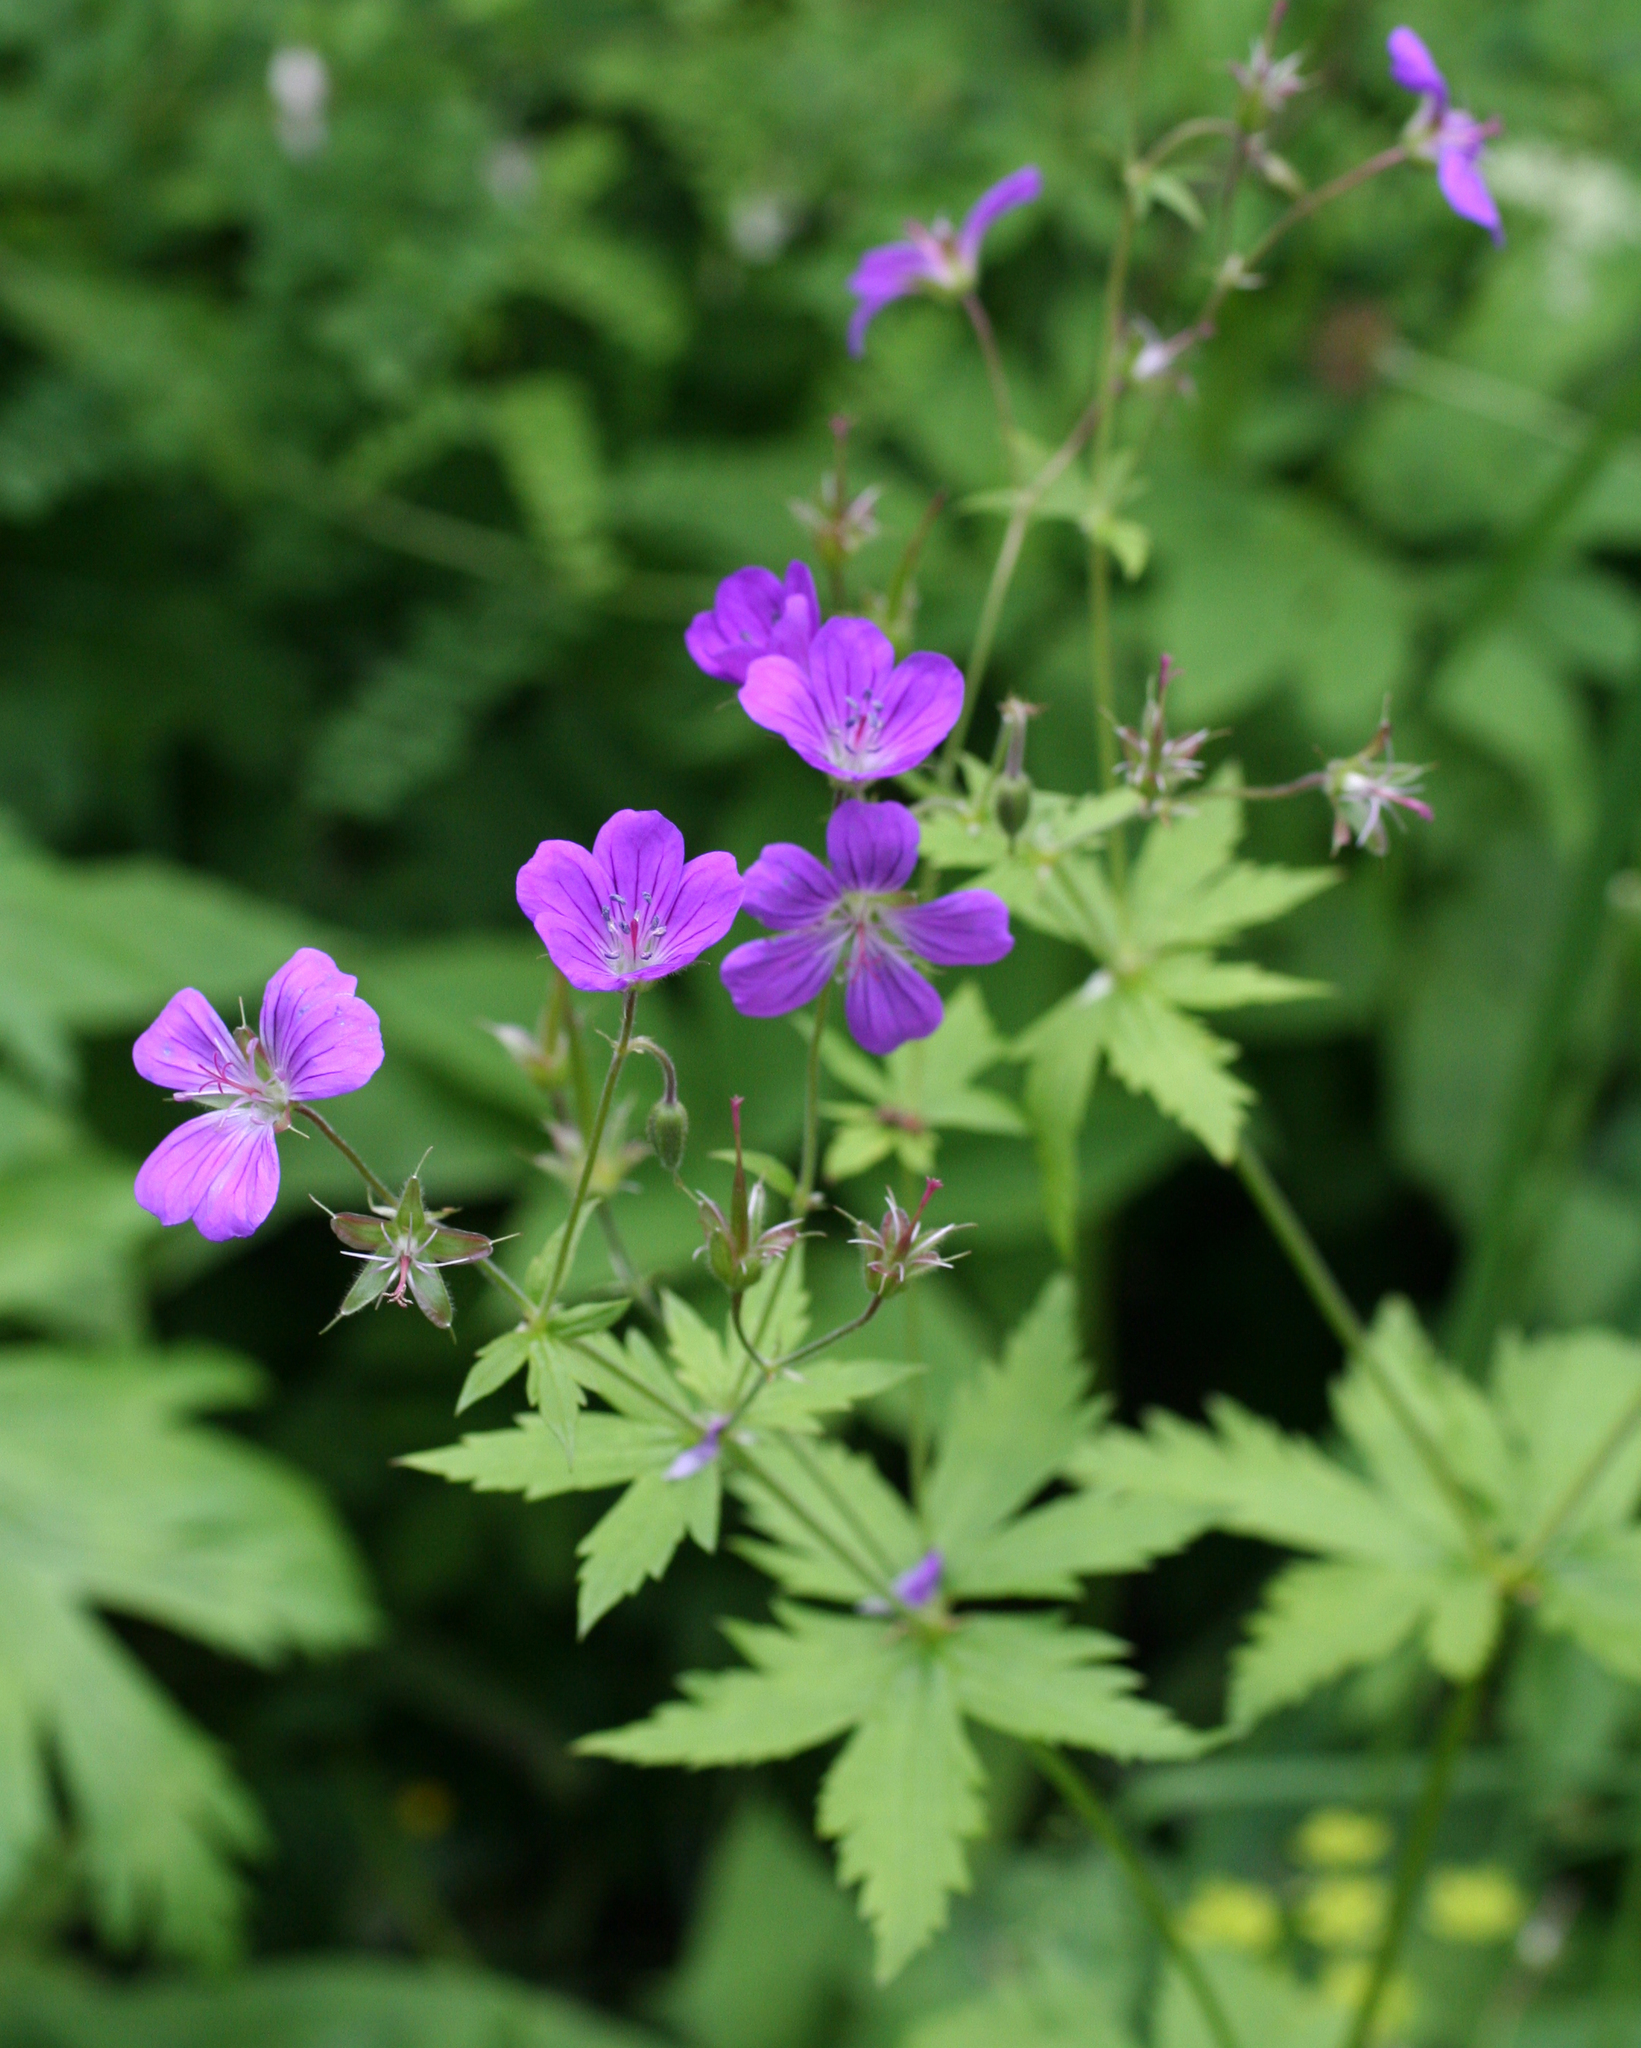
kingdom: Plantae
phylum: Tracheophyta
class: Magnoliopsida
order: Geraniales
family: Geraniaceae
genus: Geranium
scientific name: Geranium sylvaticum
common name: Wood crane's-bill
